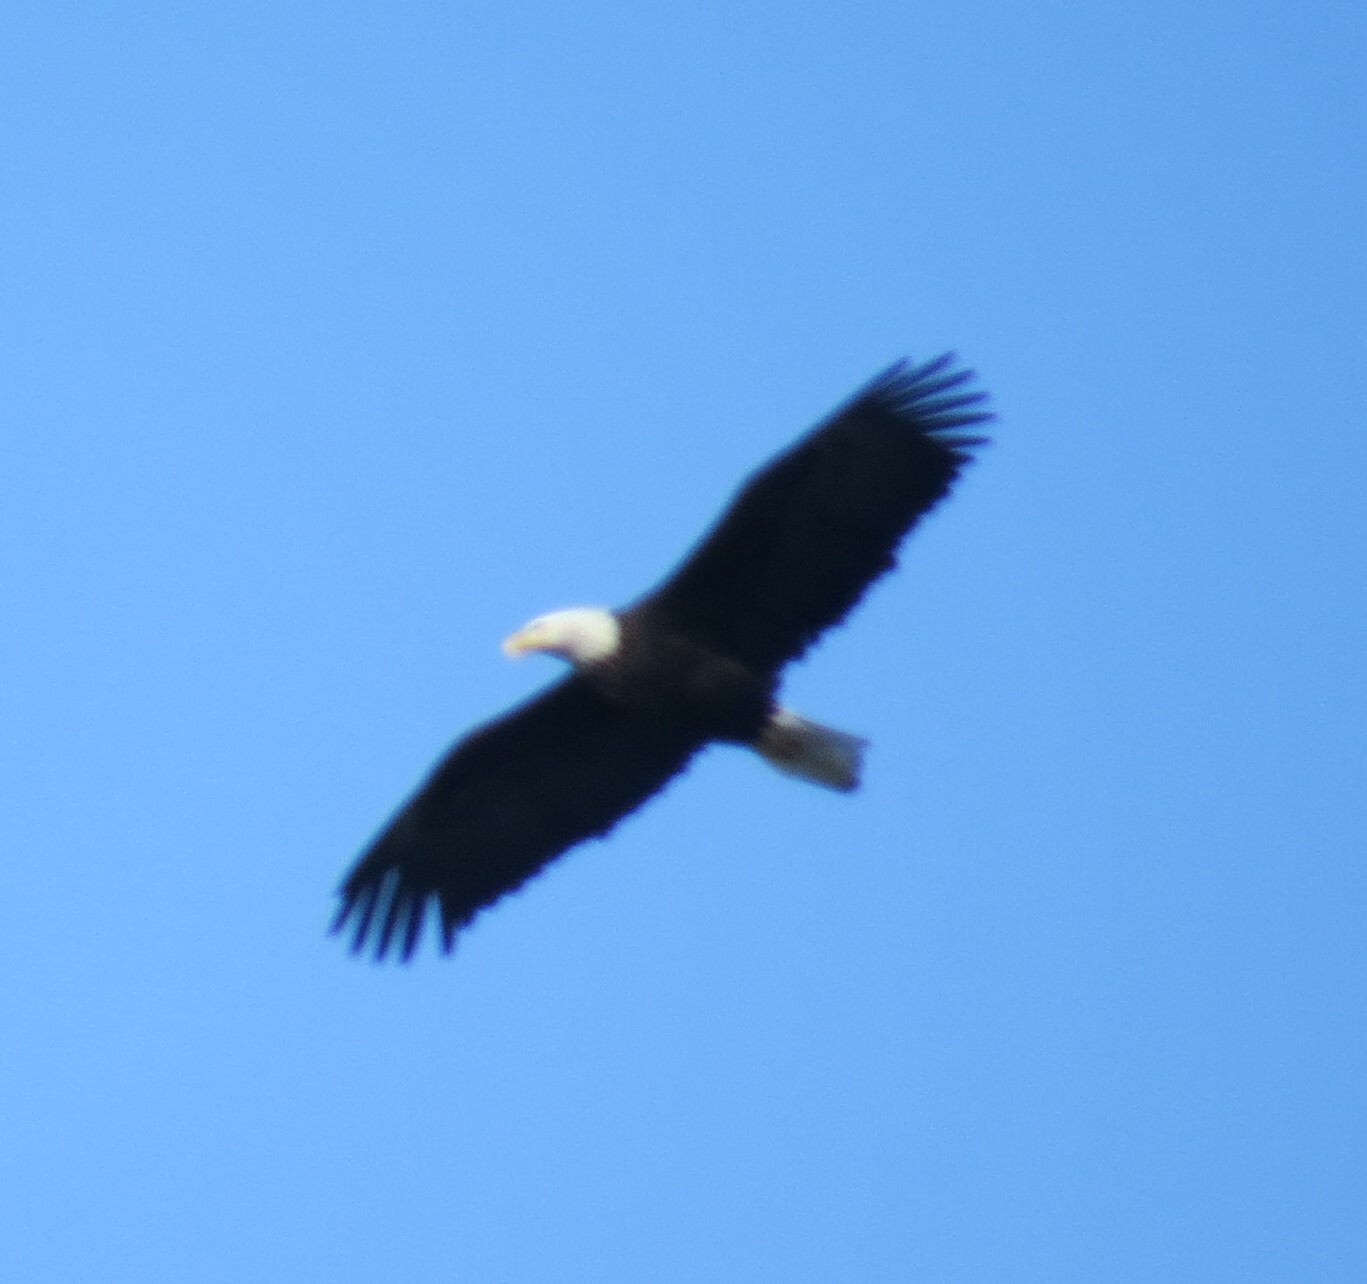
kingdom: Animalia
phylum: Chordata
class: Aves
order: Accipitriformes
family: Accipitridae
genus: Haliaeetus
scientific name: Haliaeetus leucocephalus
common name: Bald eagle
